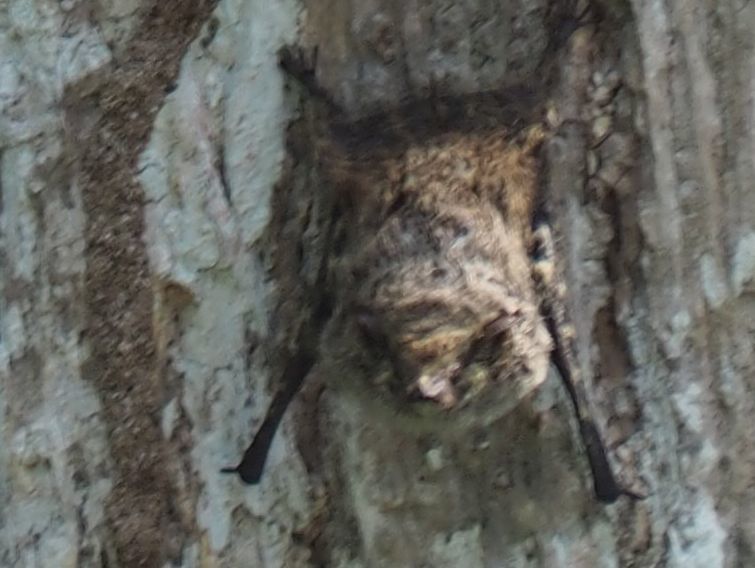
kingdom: Animalia
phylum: Chordata
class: Mammalia
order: Chiroptera
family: Emballonuridae
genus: Rhynchonycteris
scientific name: Rhynchonycteris naso
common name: Proboscis bat
